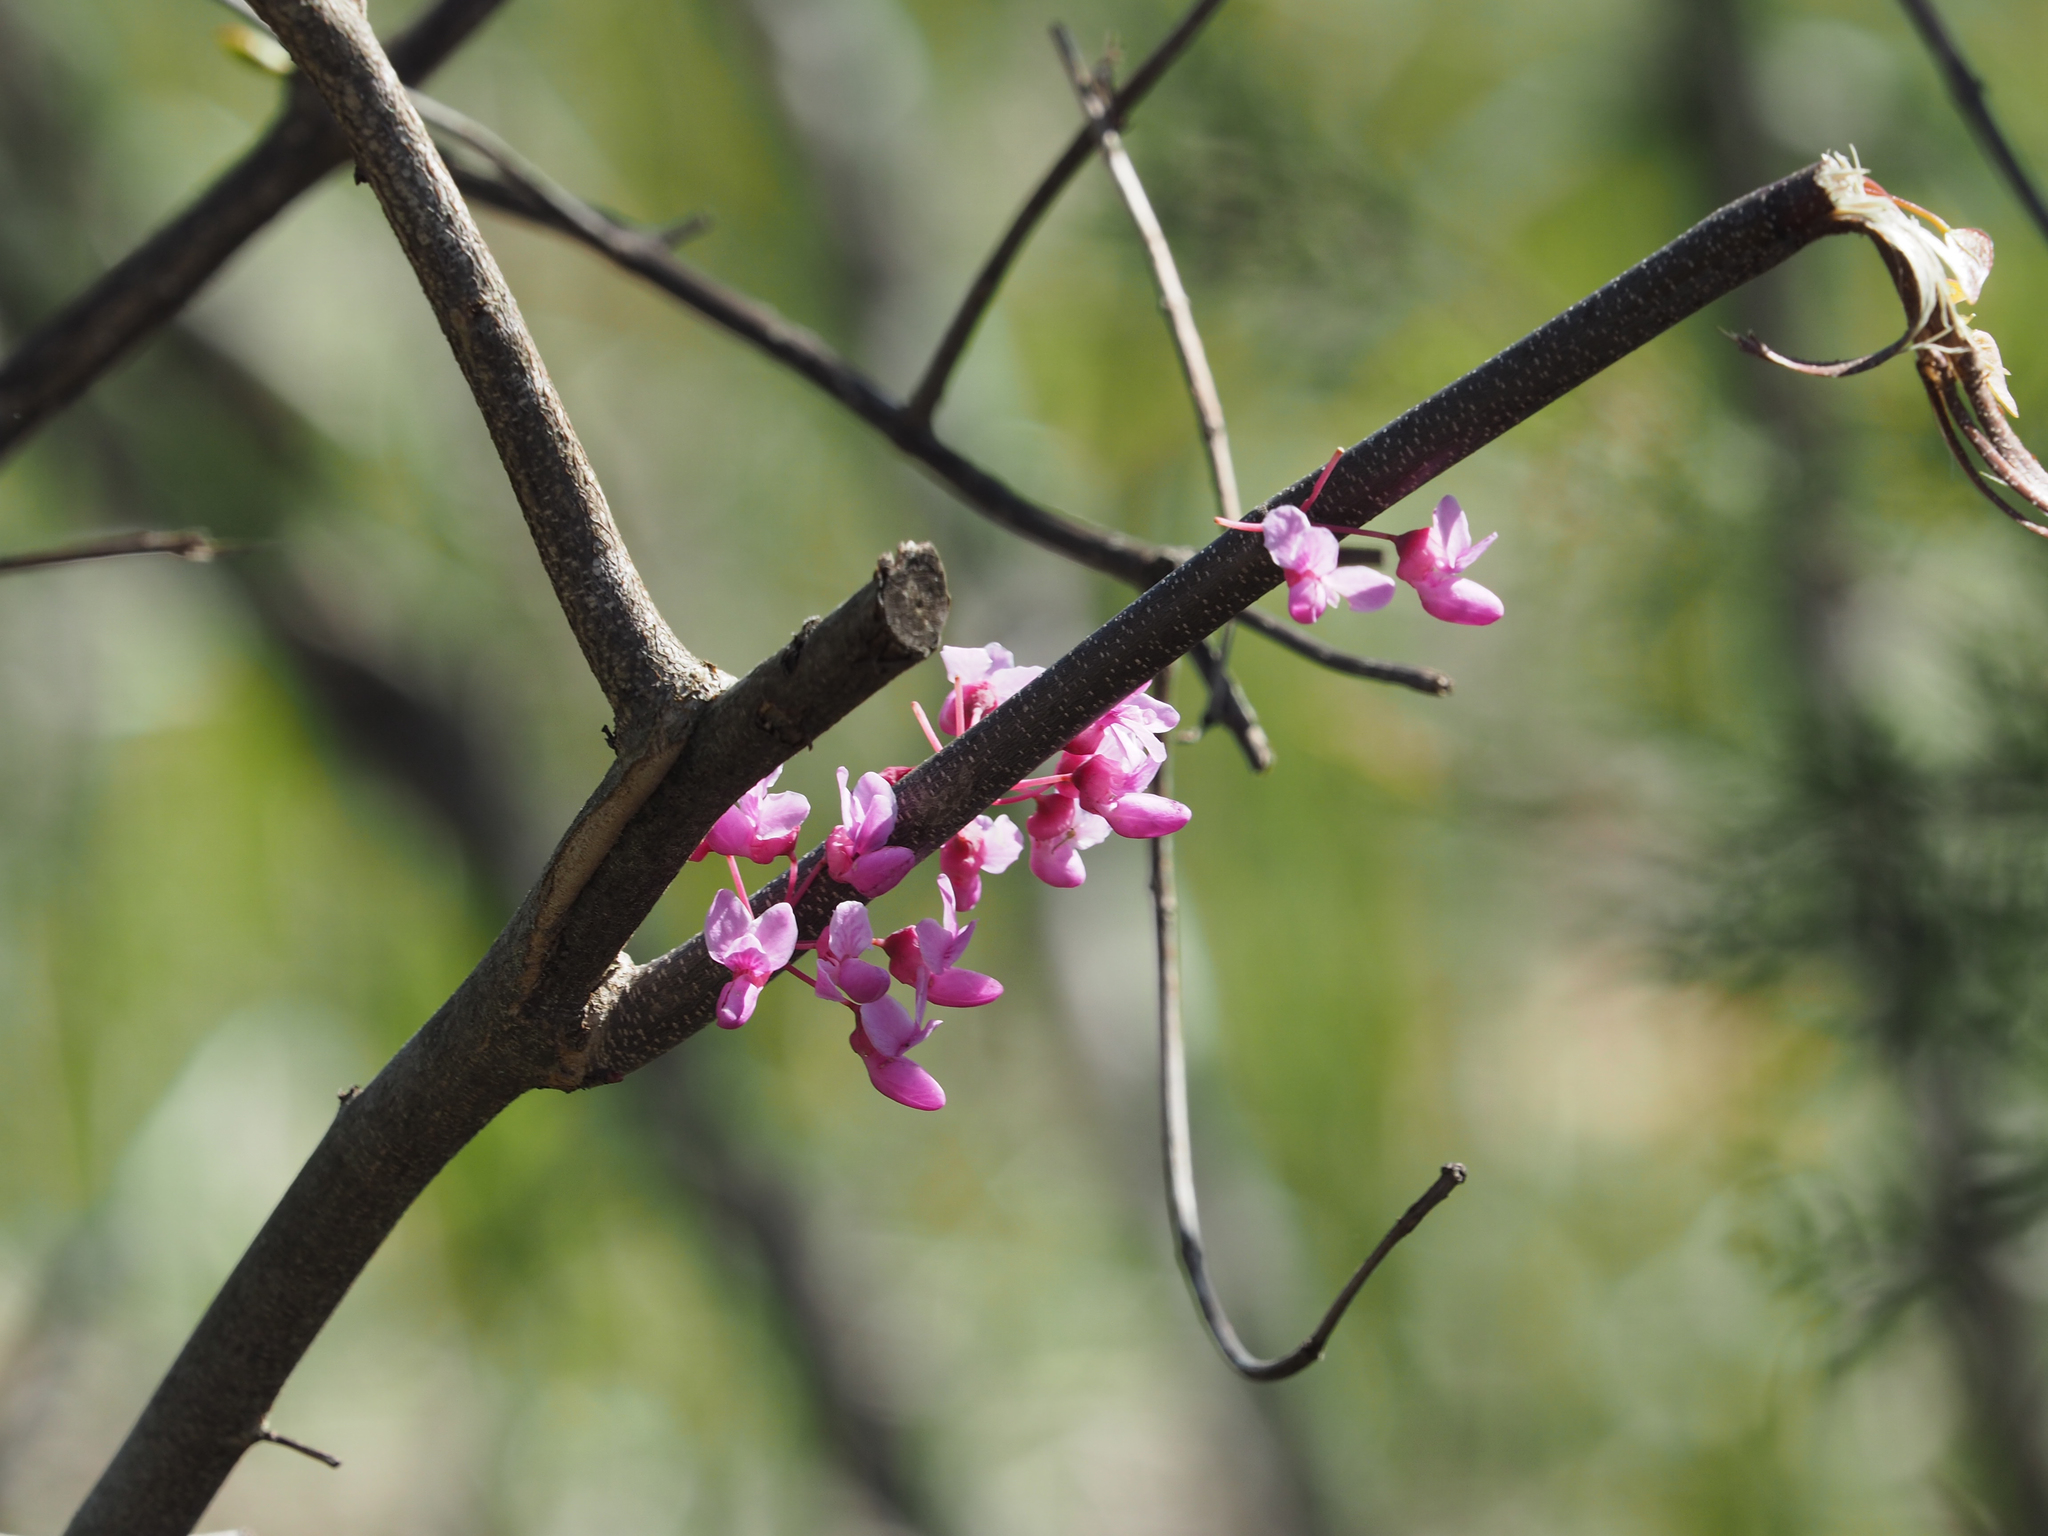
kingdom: Plantae
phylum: Tracheophyta
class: Magnoliopsida
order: Fabales
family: Fabaceae
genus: Cercis
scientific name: Cercis canadensis
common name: Eastern redbud
